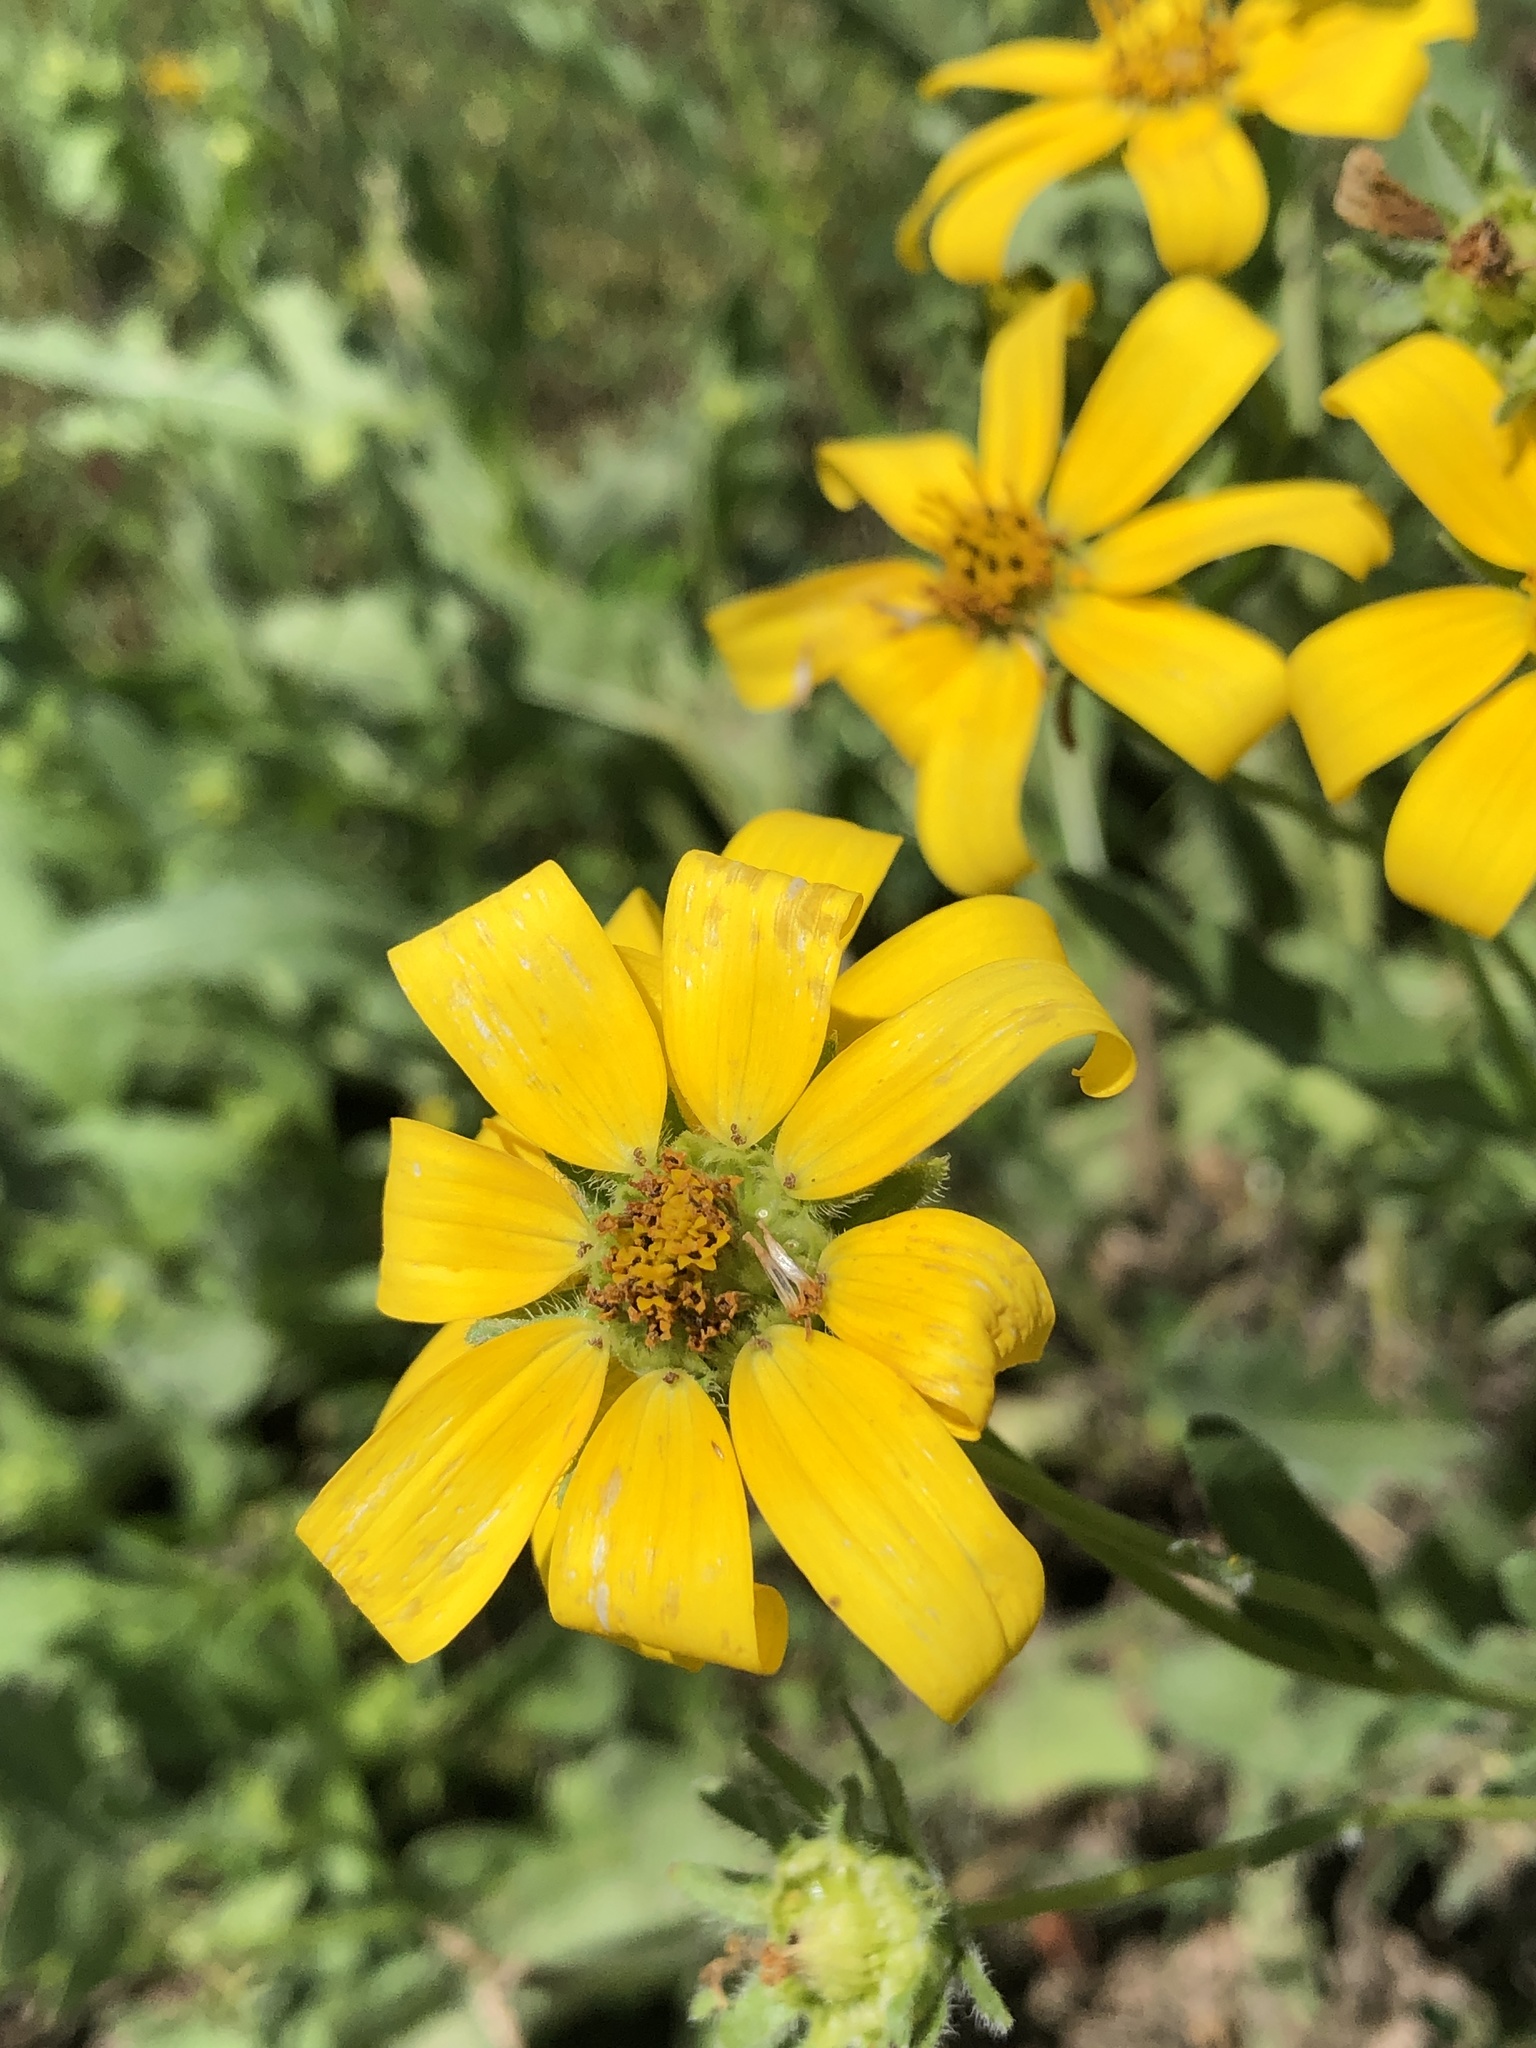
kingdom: Plantae
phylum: Tracheophyta
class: Magnoliopsida
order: Asterales
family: Asteraceae
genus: Engelmannia
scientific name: Engelmannia peristenia
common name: Engelmann's daisy
